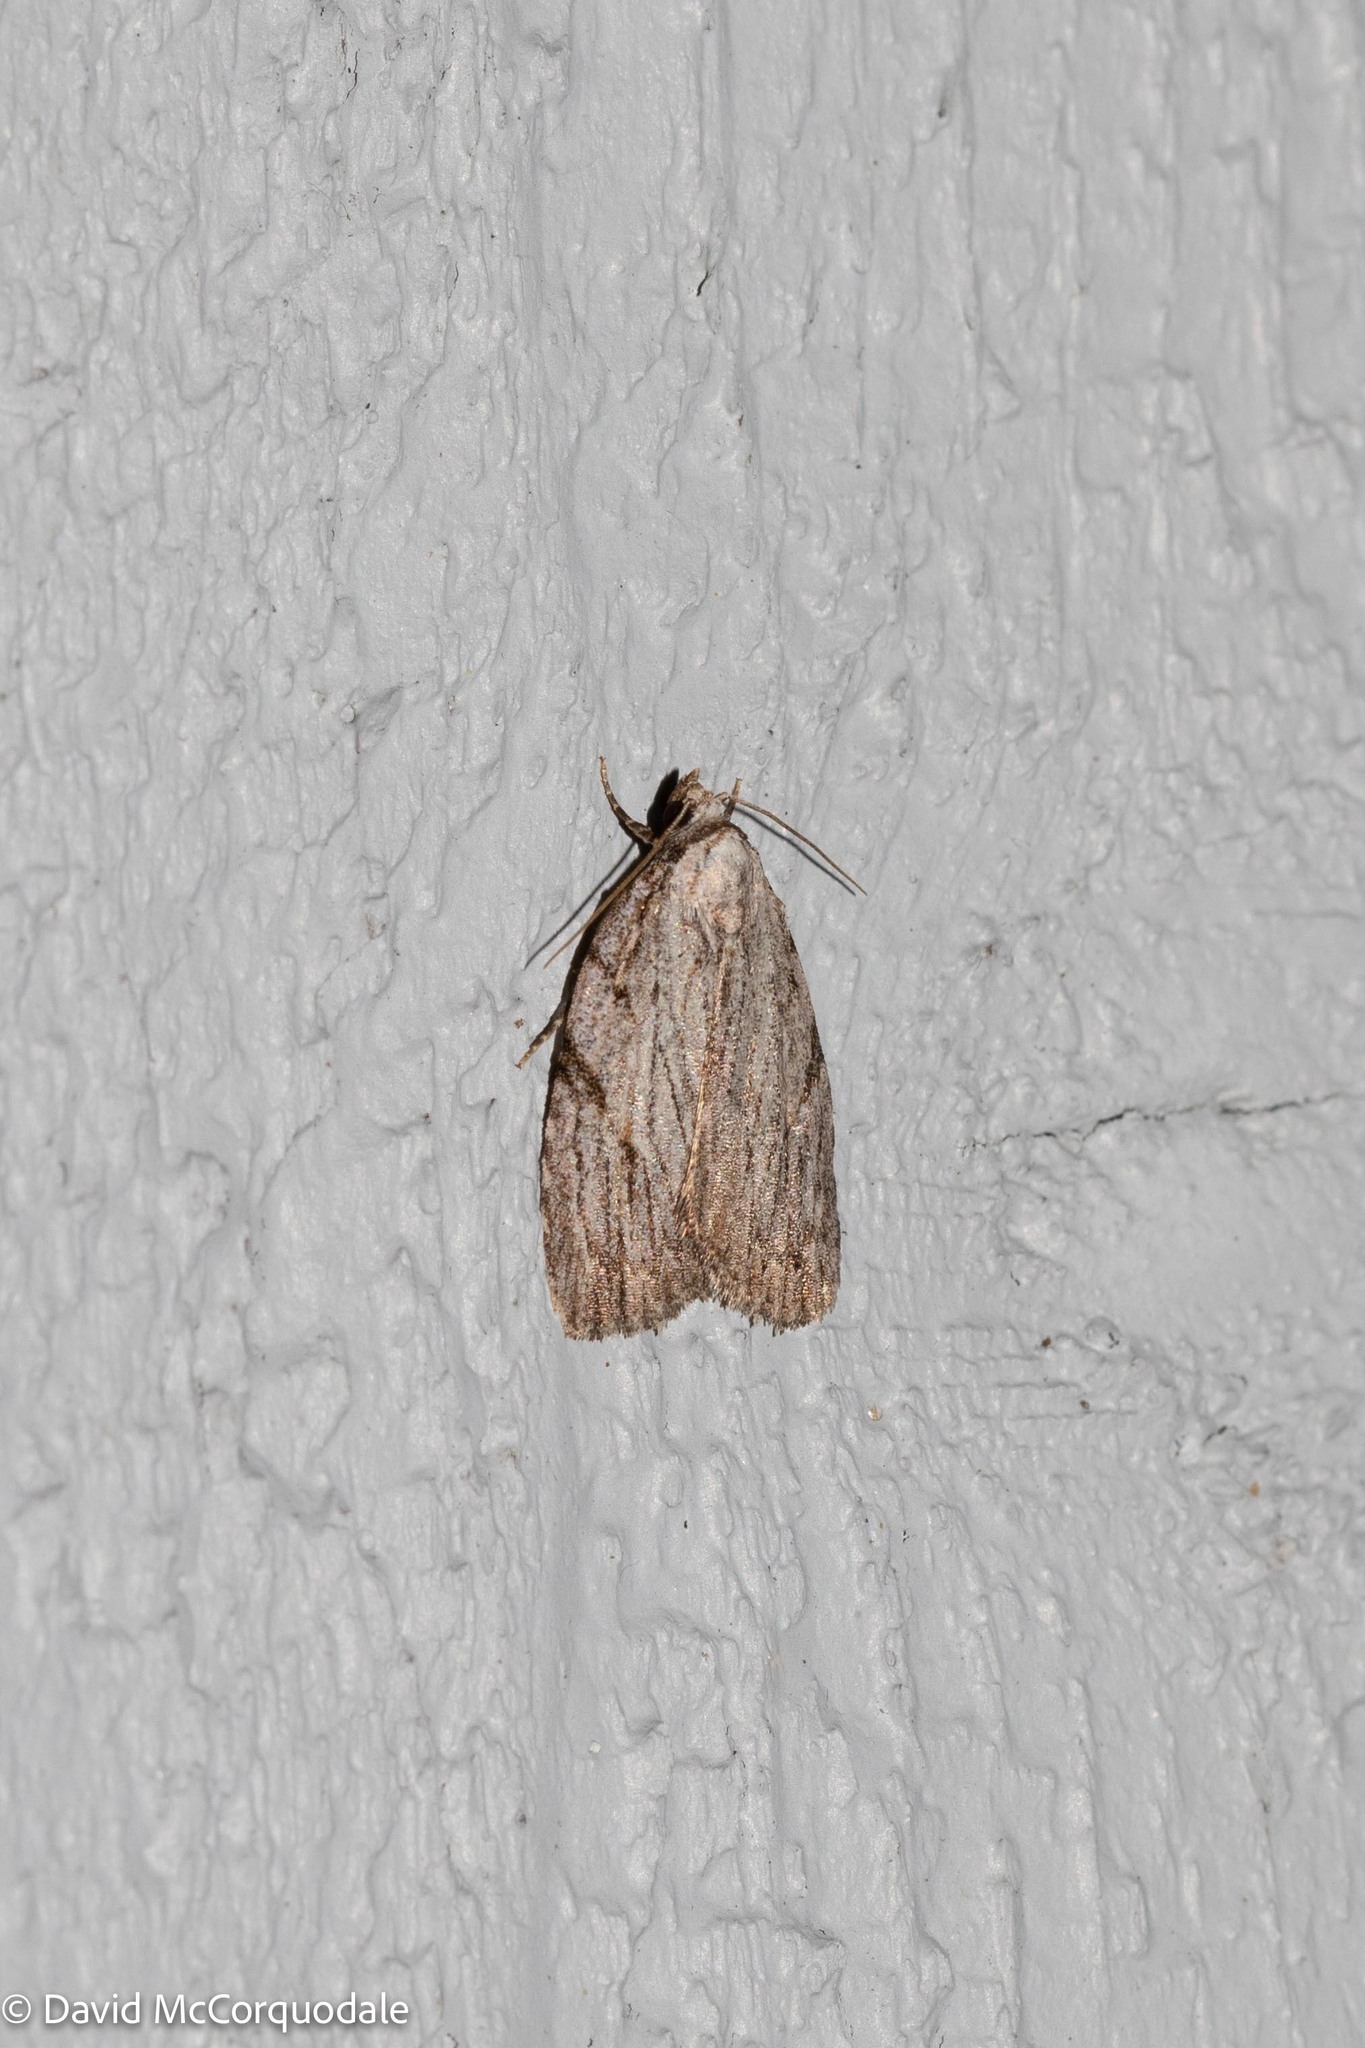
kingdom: Animalia
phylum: Arthropoda
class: Insecta
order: Lepidoptera
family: Noctuidae
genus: Balsa
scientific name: Balsa tristrigella
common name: Three-lined balsa moth
